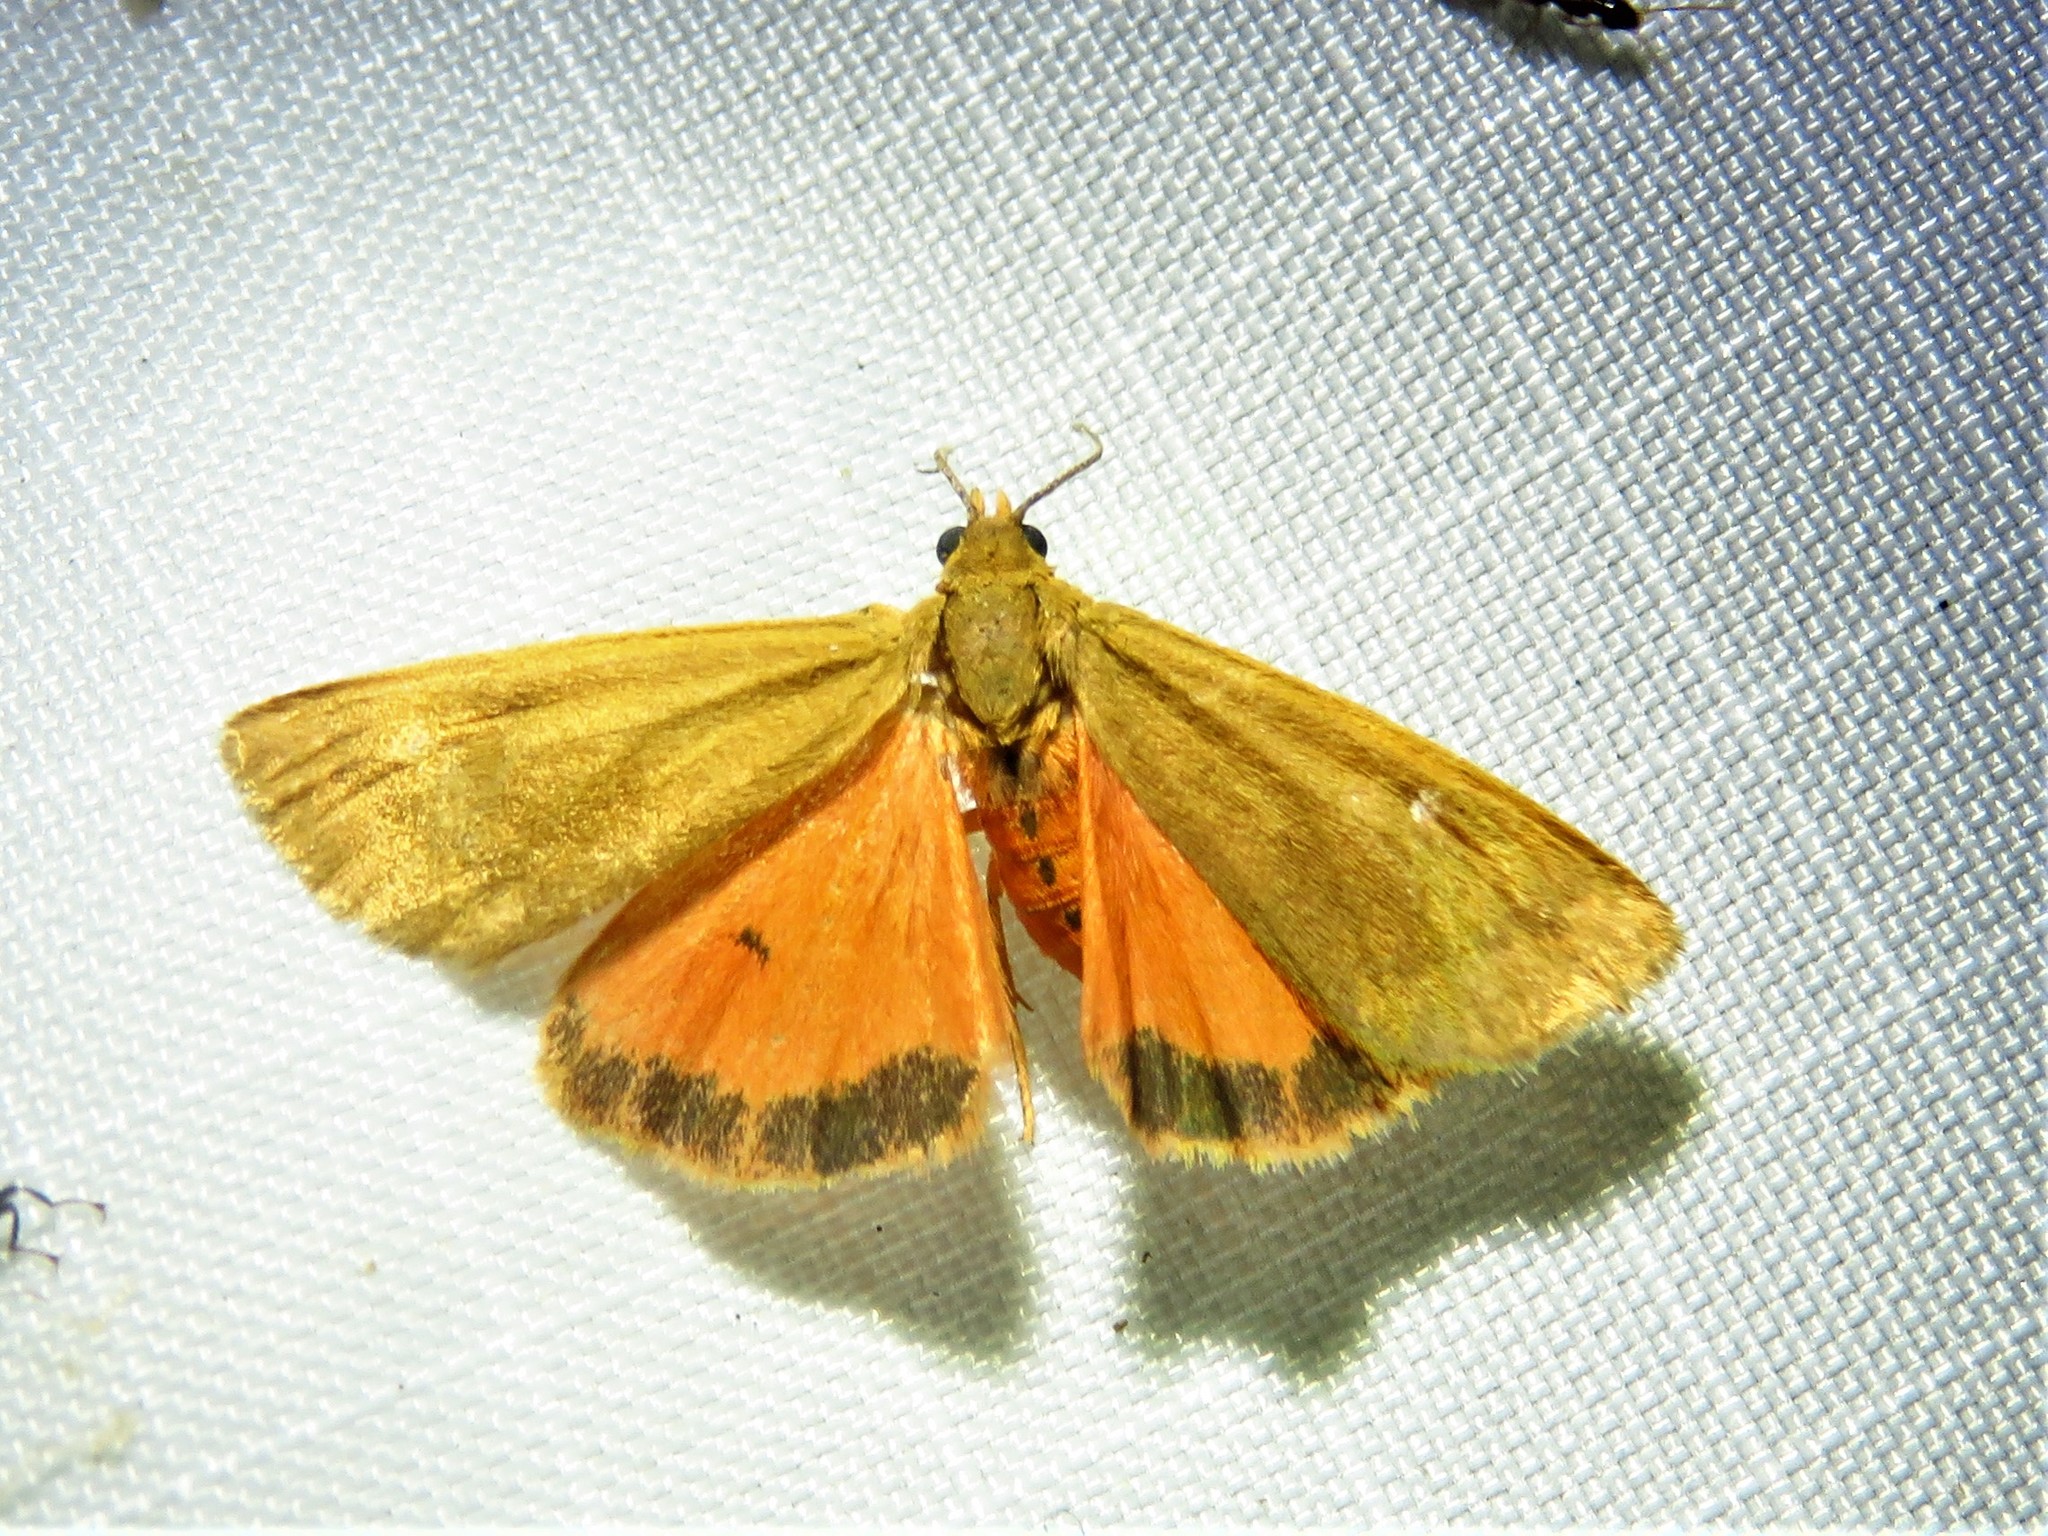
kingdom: Animalia
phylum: Arthropoda
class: Insecta
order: Lepidoptera
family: Erebidae
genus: Virbia
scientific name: Virbia aurantiaca
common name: Orange virbia moth
